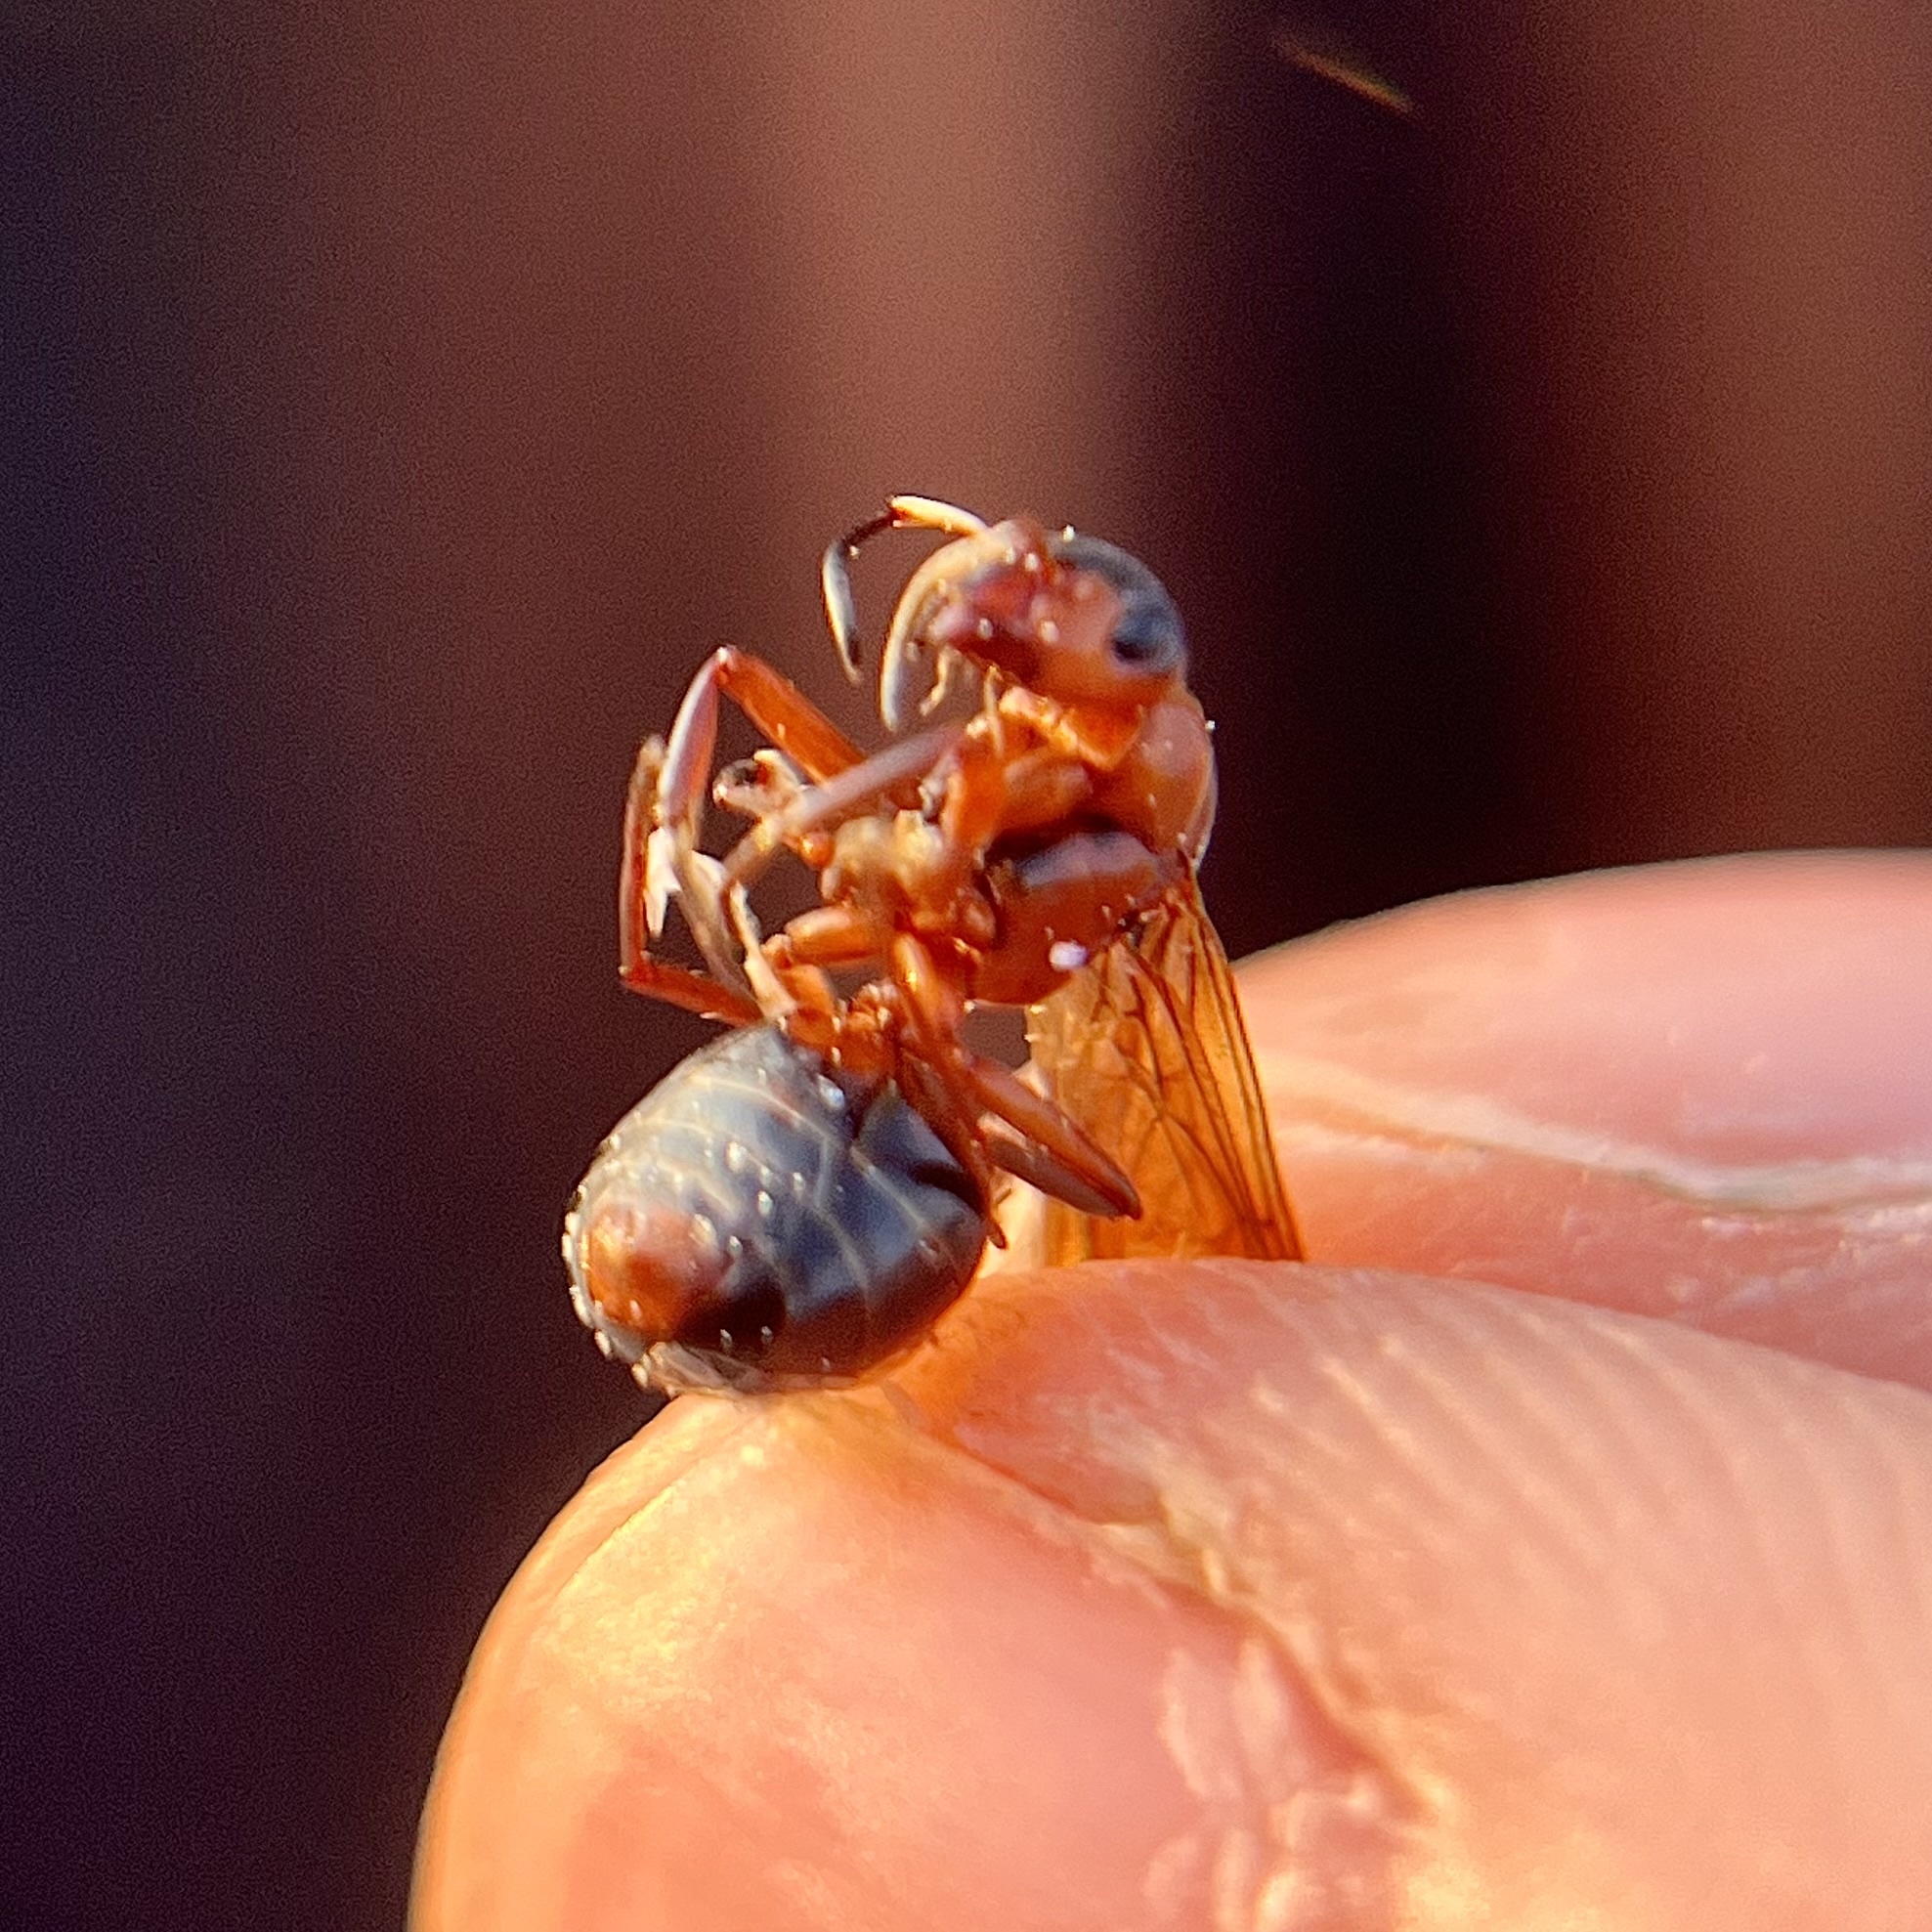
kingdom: Animalia
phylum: Arthropoda
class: Insecta
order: Hymenoptera
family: Formicidae
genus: Formica
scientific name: Formica sanguinea
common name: Blood-red ant
